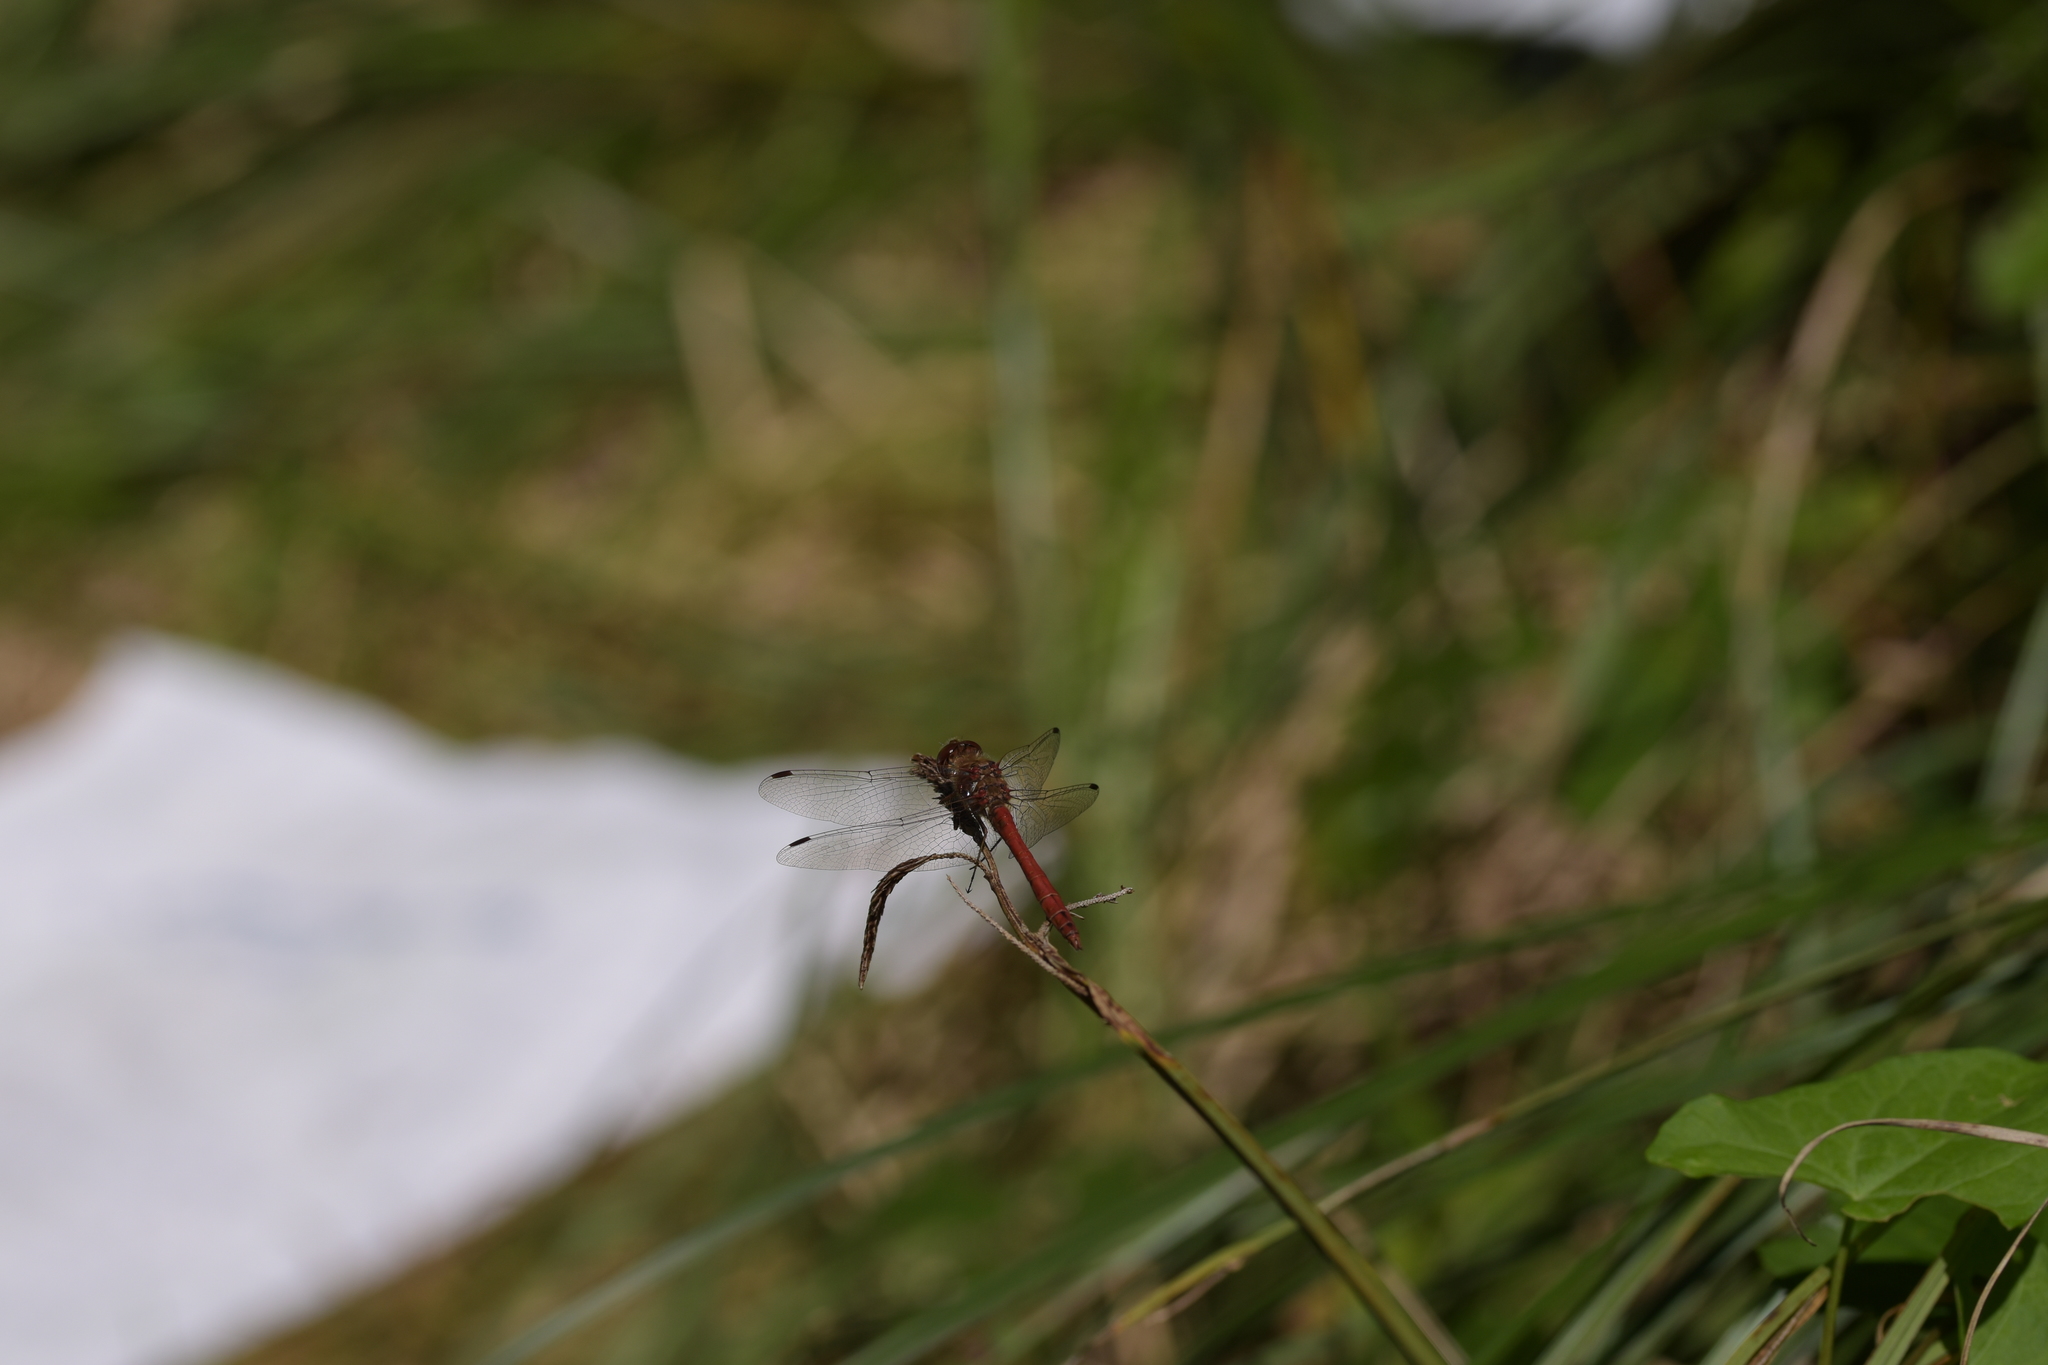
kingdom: Animalia
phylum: Arthropoda
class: Insecta
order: Odonata
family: Libellulidae
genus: Sympetrum
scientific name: Sympetrum vulgatum
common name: Vagrant darter
